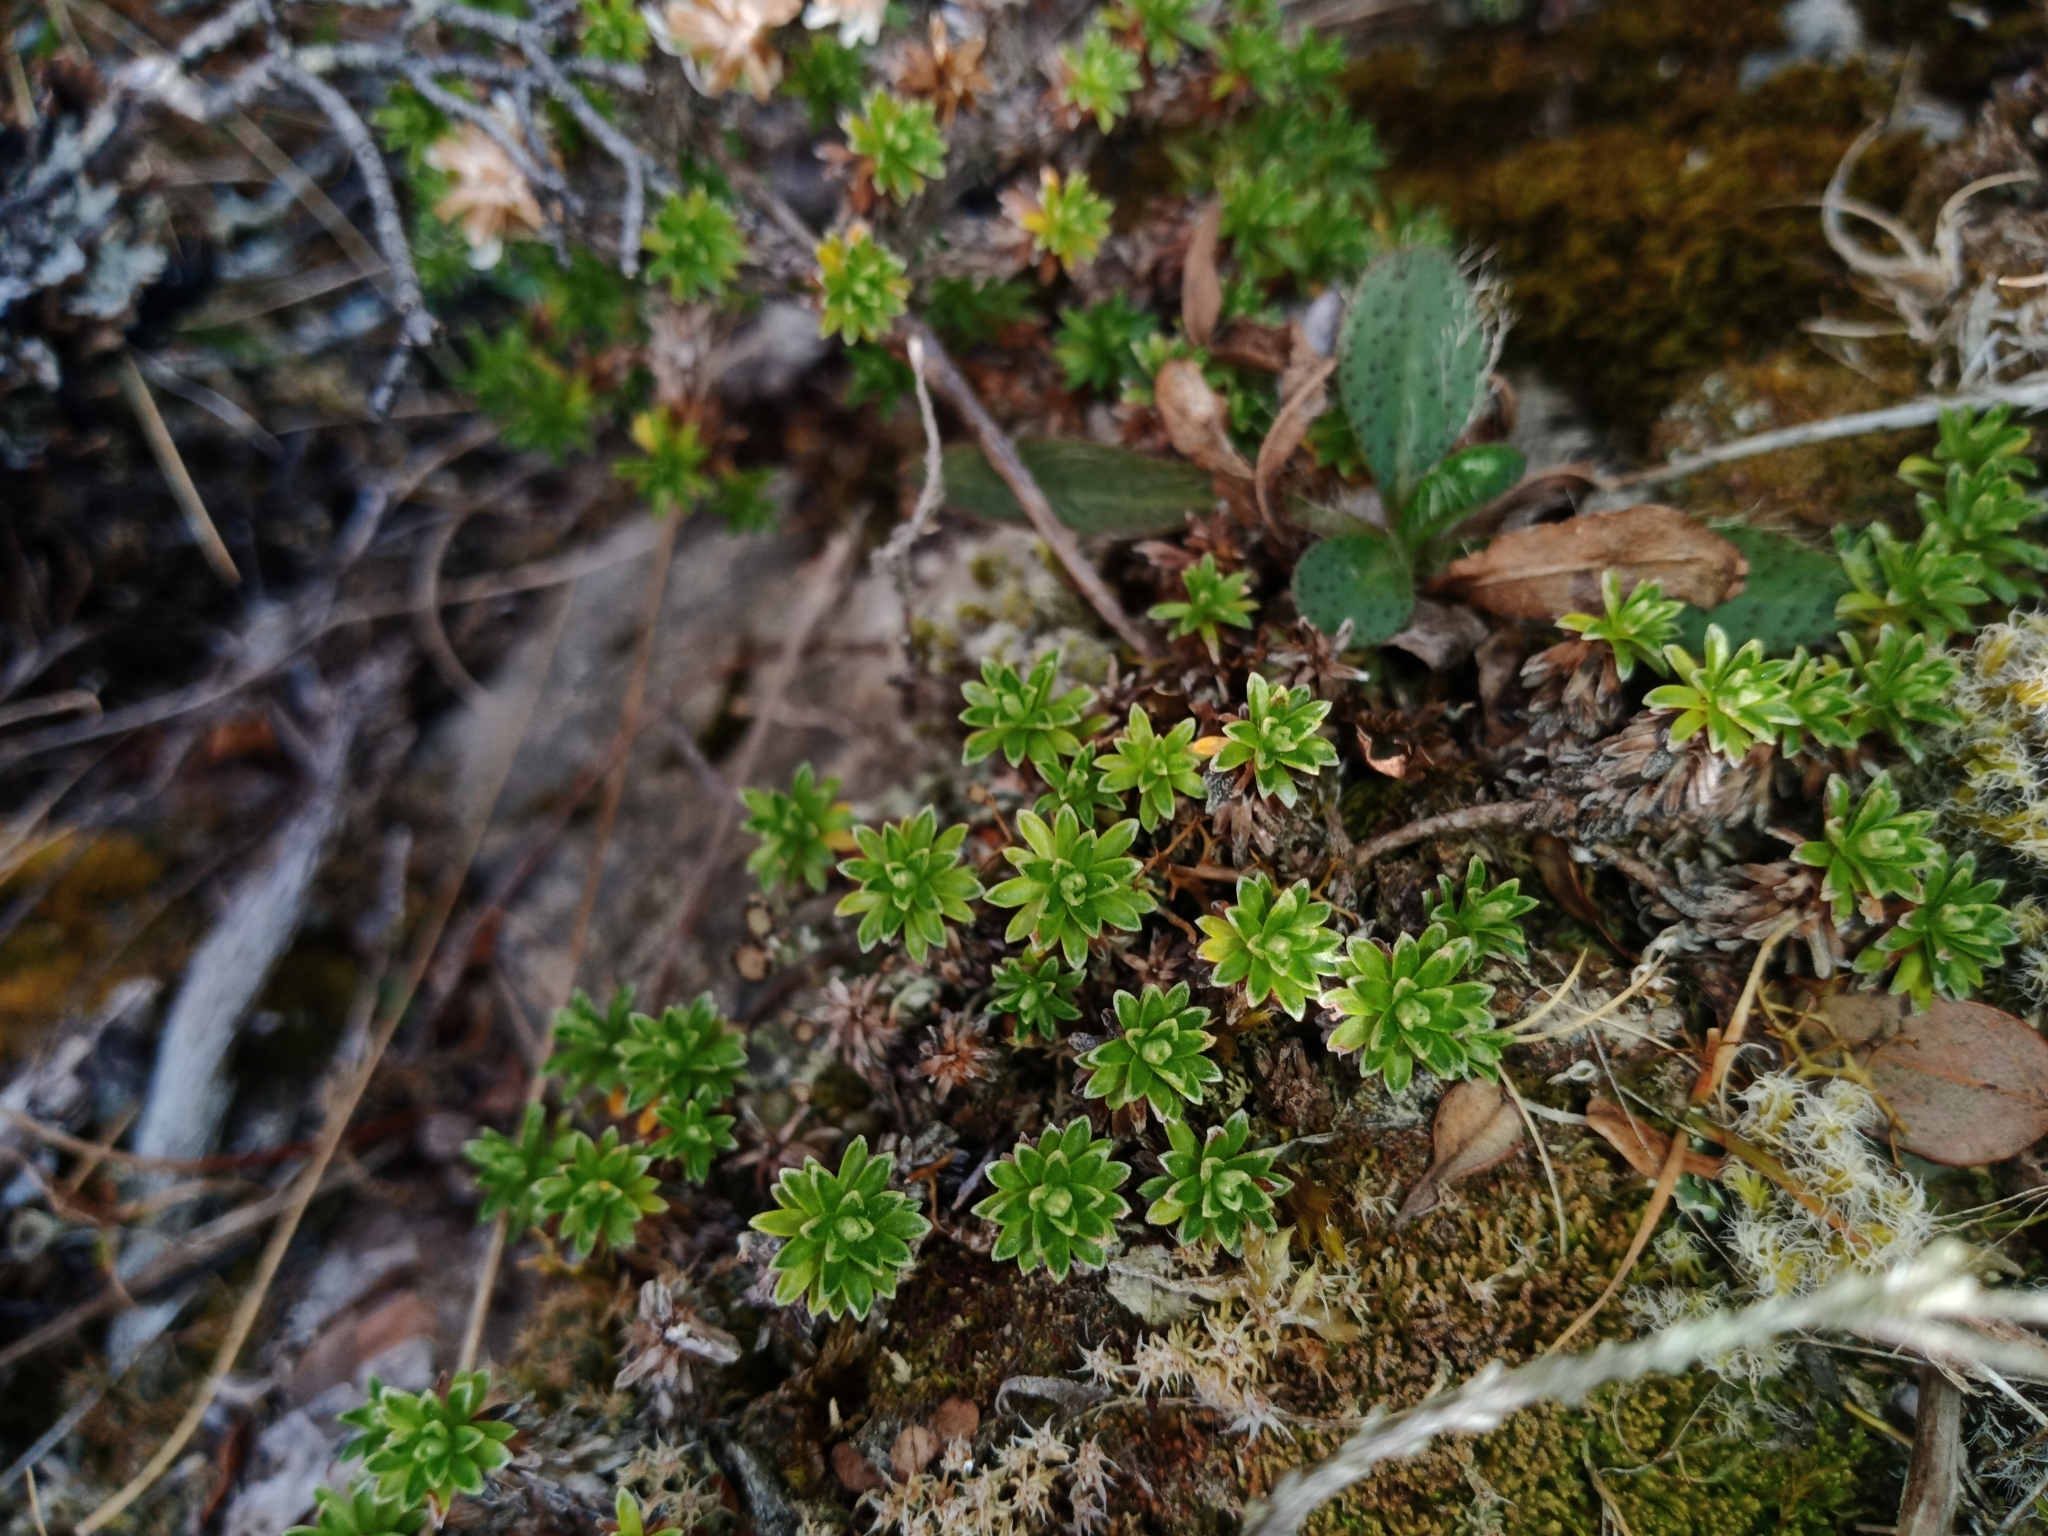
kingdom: Plantae
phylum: Tracheophyta
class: Magnoliopsida
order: Asterales
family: Asteraceae
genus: Raoulia
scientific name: Raoulia subsericea
